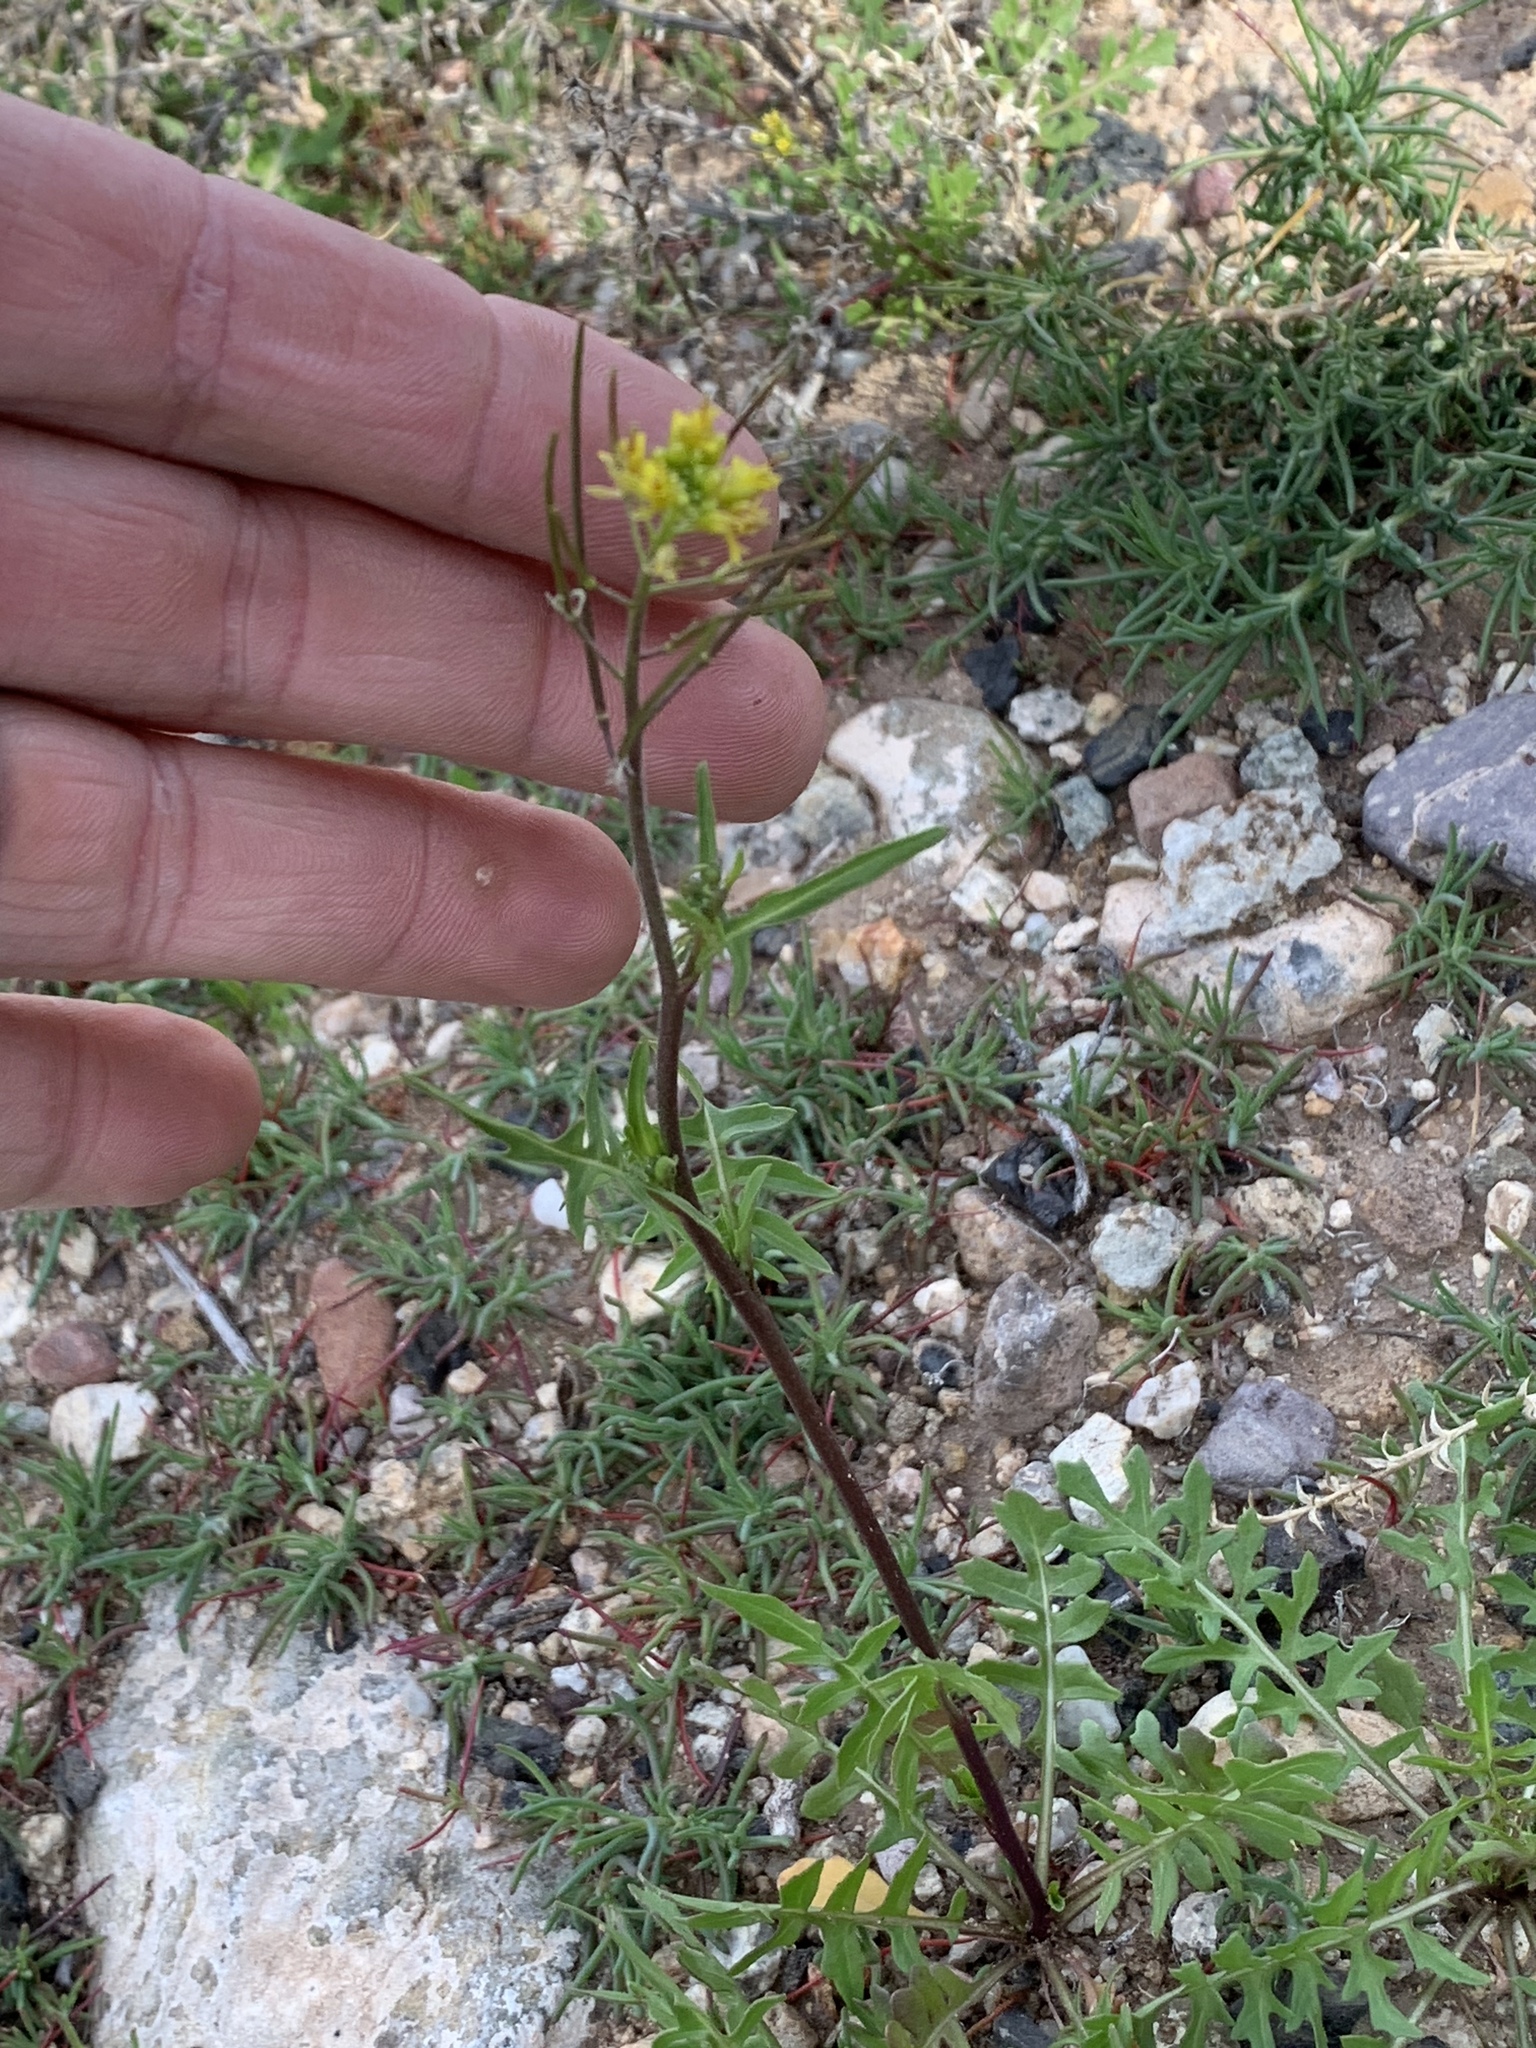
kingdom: Plantae
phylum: Tracheophyta
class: Magnoliopsida
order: Brassicales
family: Brassicaceae
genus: Sisymbrium
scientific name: Sisymbrium irio
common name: London rocket
